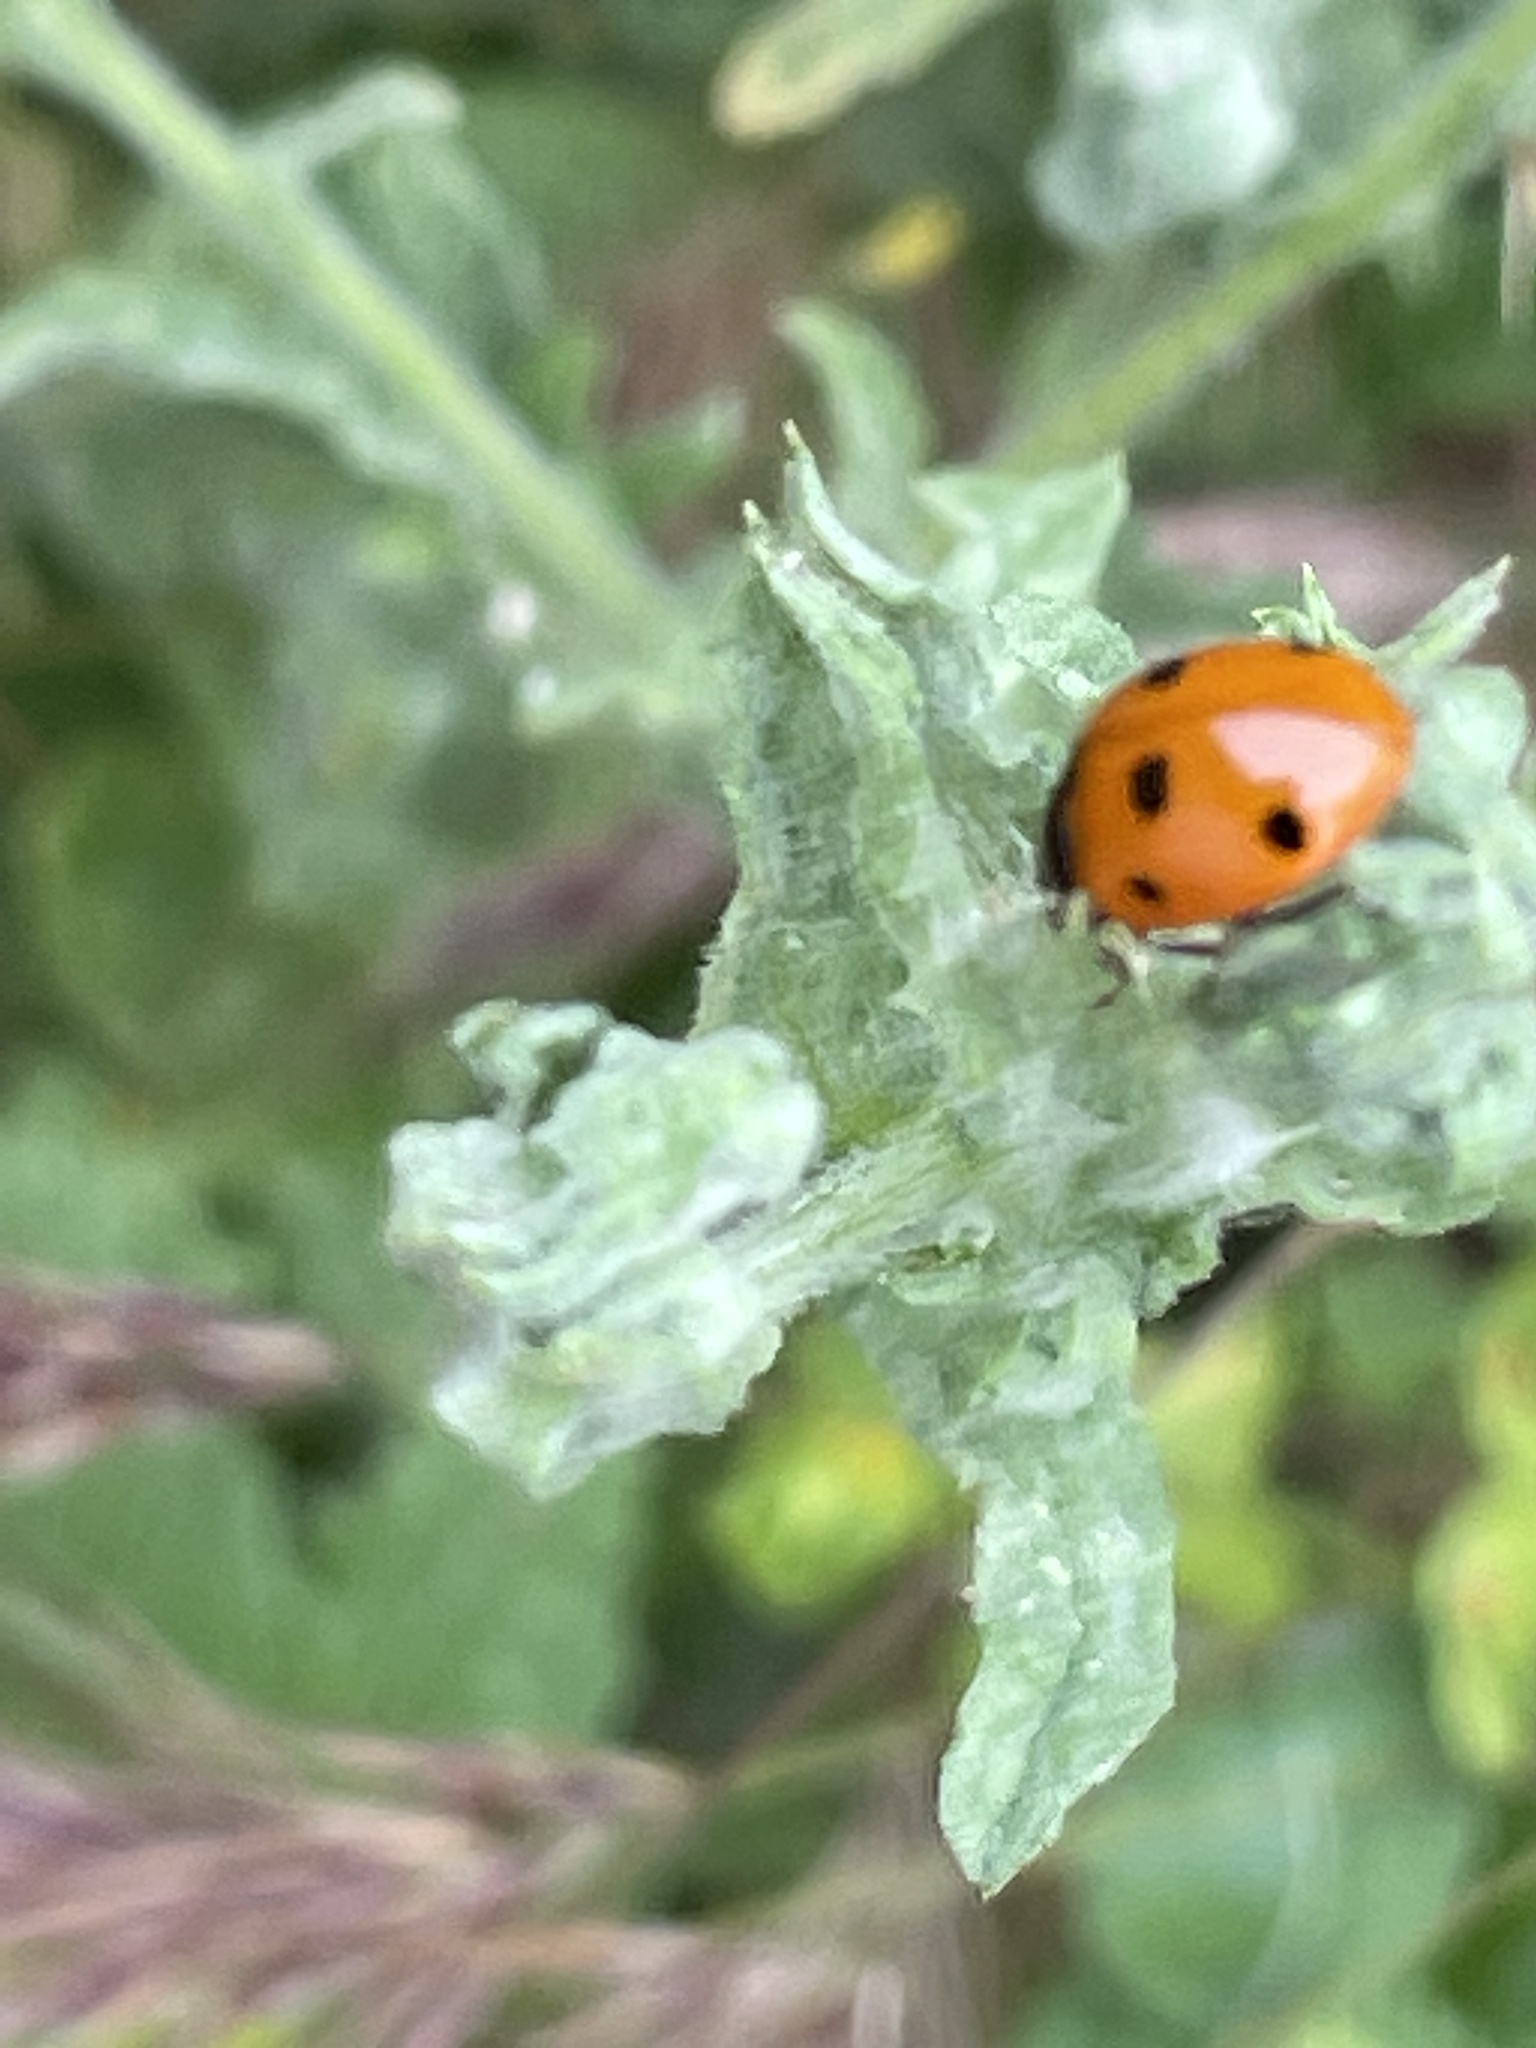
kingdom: Animalia
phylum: Arthropoda
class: Insecta
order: Coleoptera
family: Coccinellidae
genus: Coccinella
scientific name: Coccinella septempunctata
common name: Sevenspotted lady beetle
